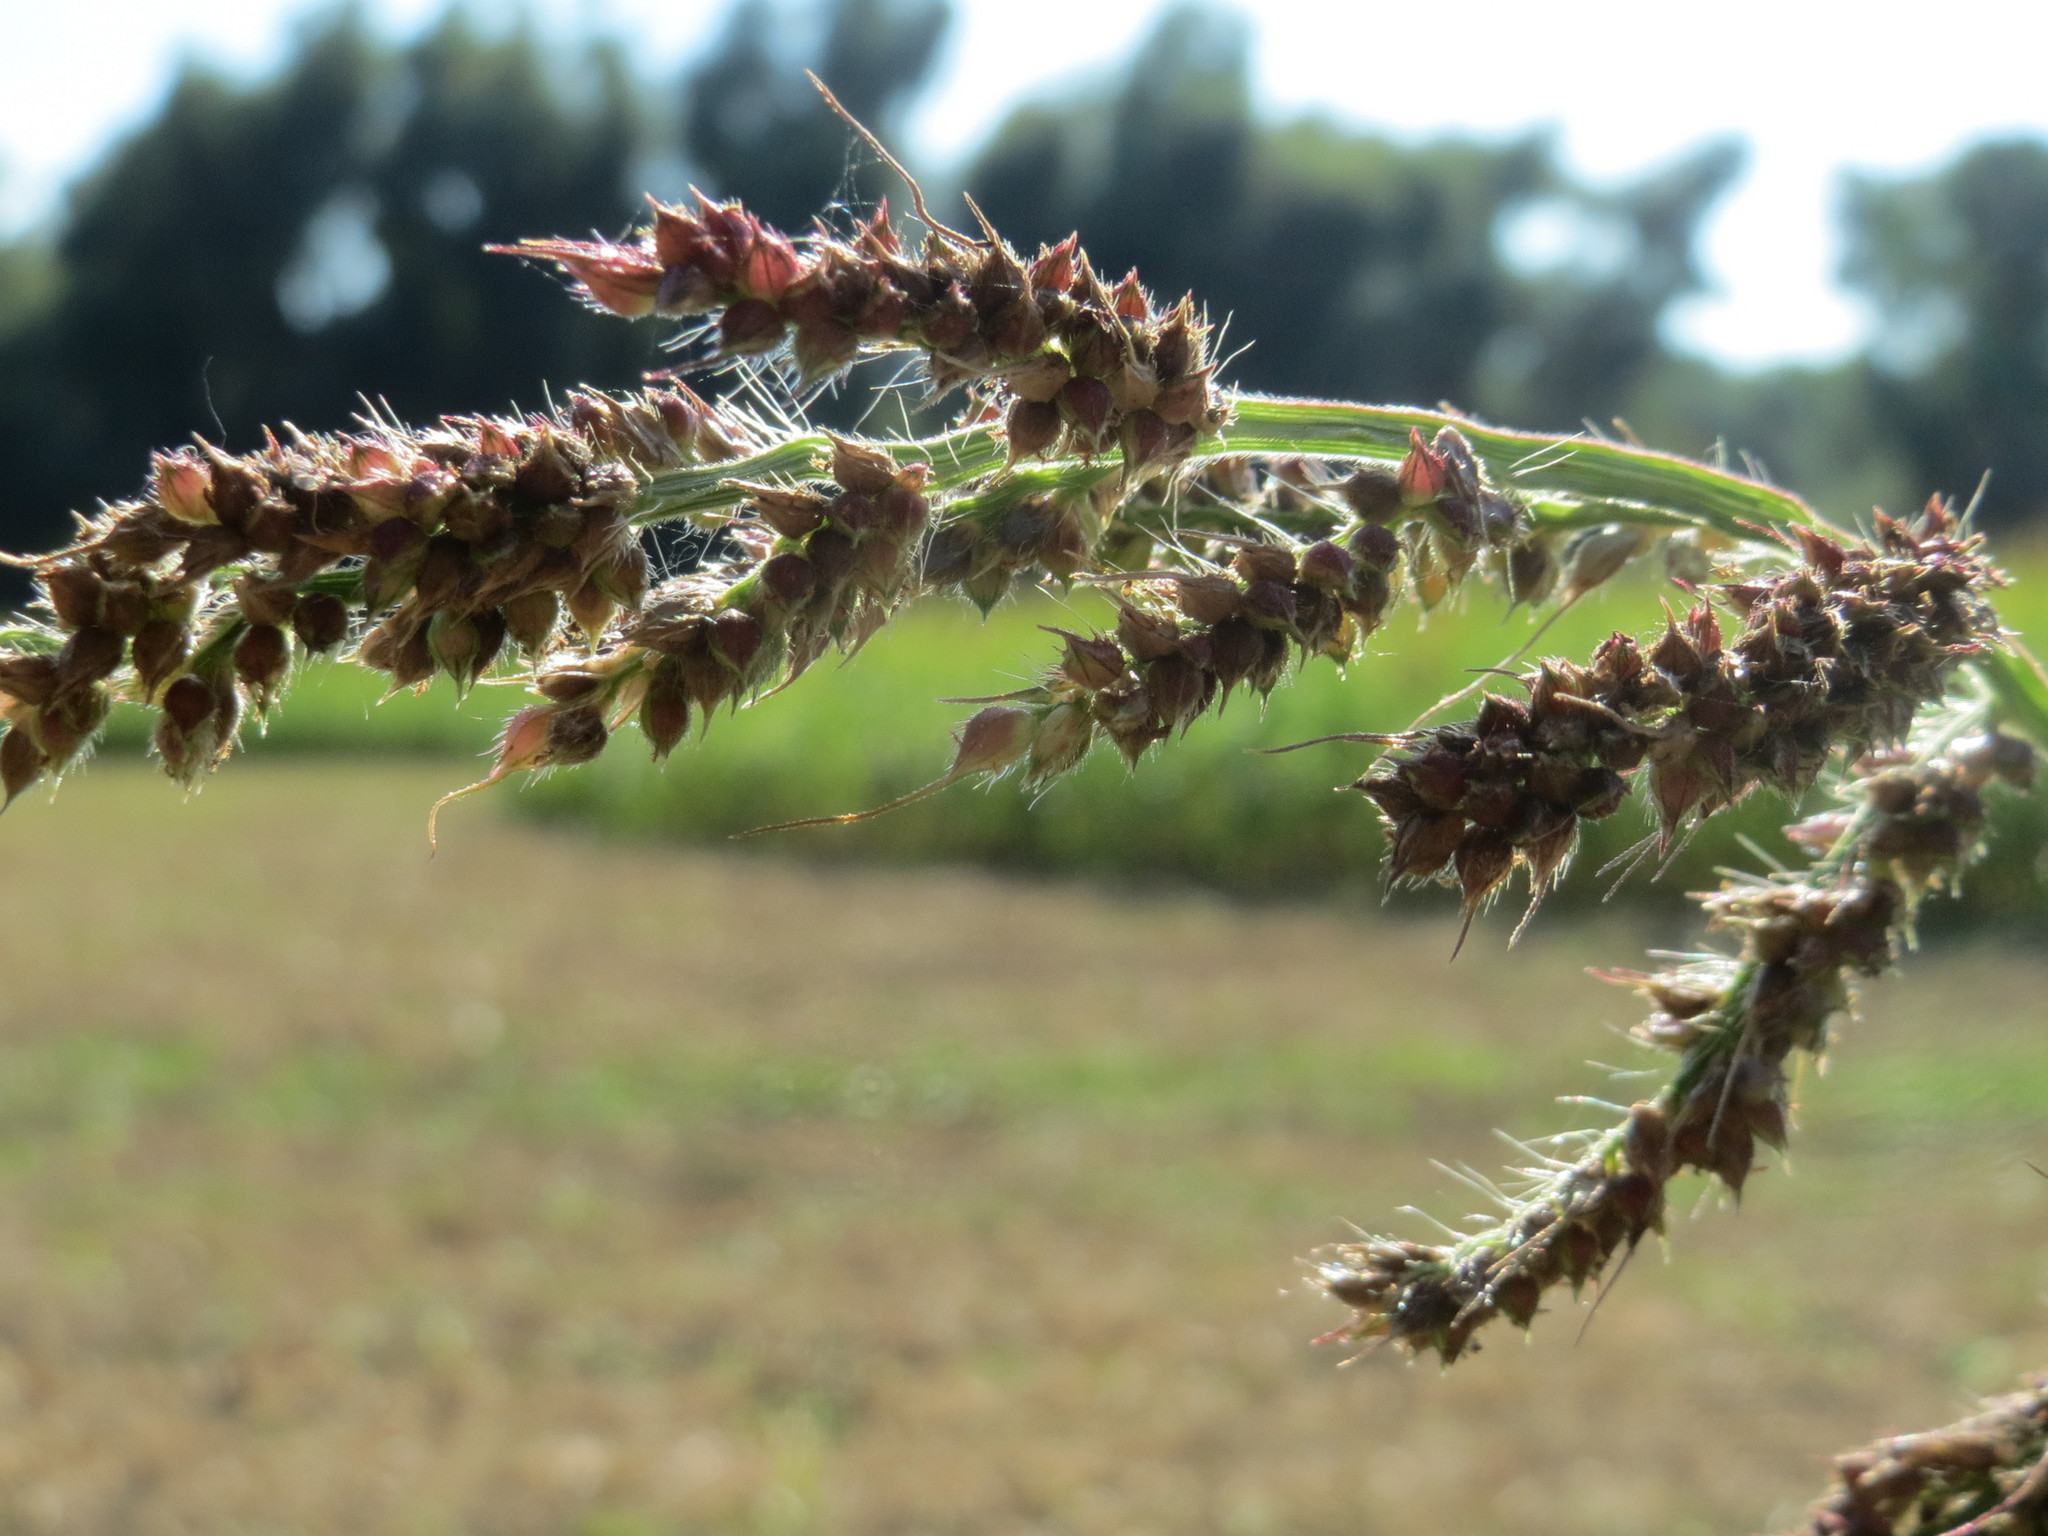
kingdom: Plantae
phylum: Tracheophyta
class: Liliopsida
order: Poales
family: Poaceae
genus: Echinochloa
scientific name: Echinochloa crus-galli
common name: Cockspur
